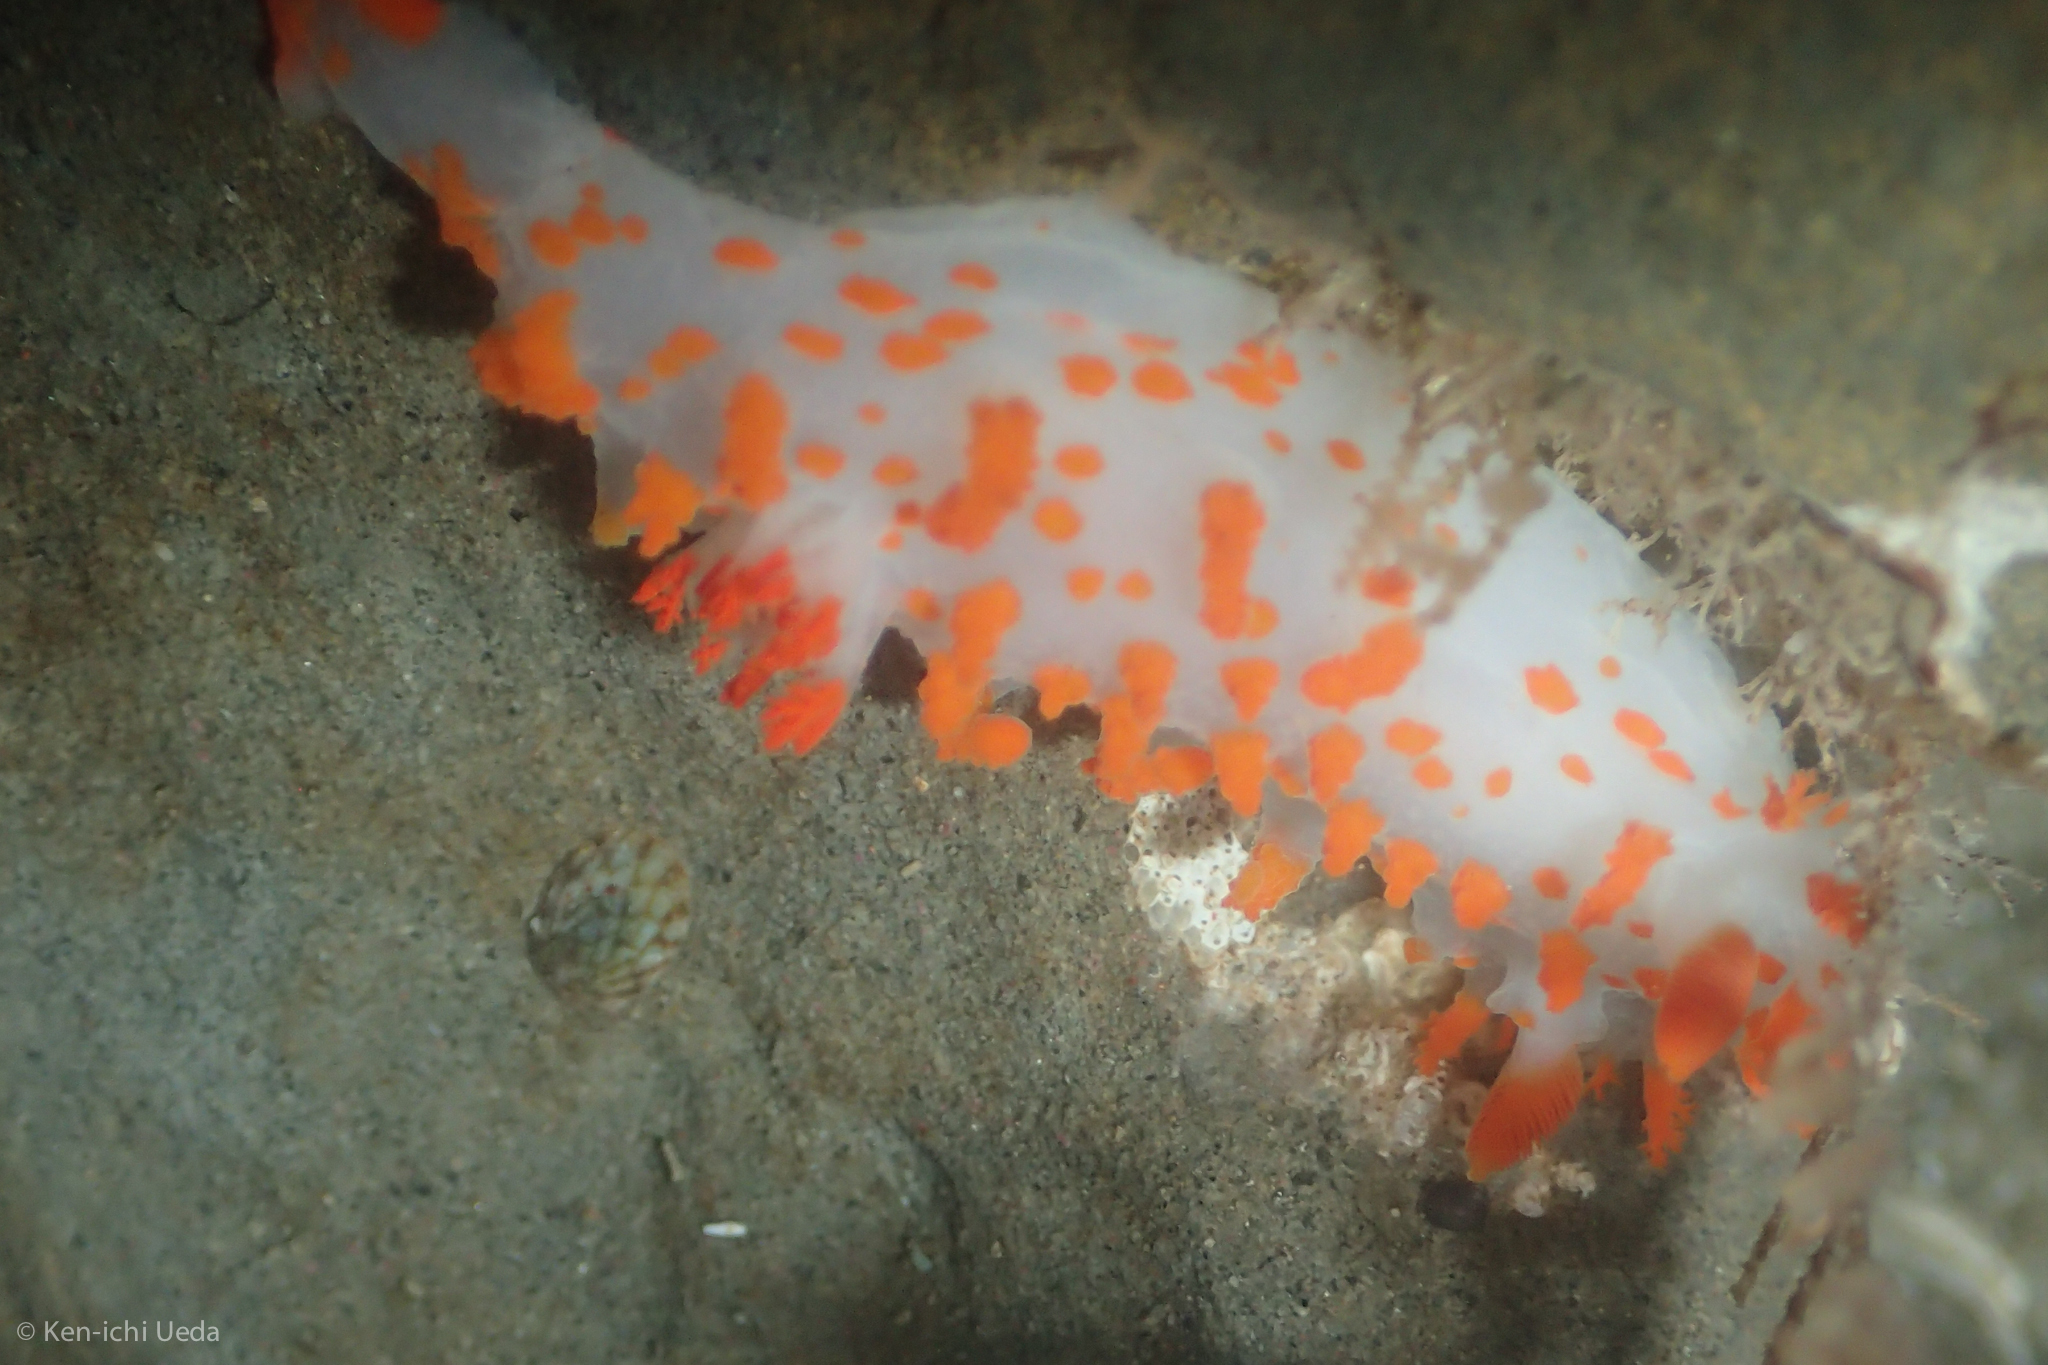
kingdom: Animalia
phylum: Mollusca
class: Gastropoda
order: Nudibranchia
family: Polyceridae
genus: Triopha
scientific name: Triopha catalinae
